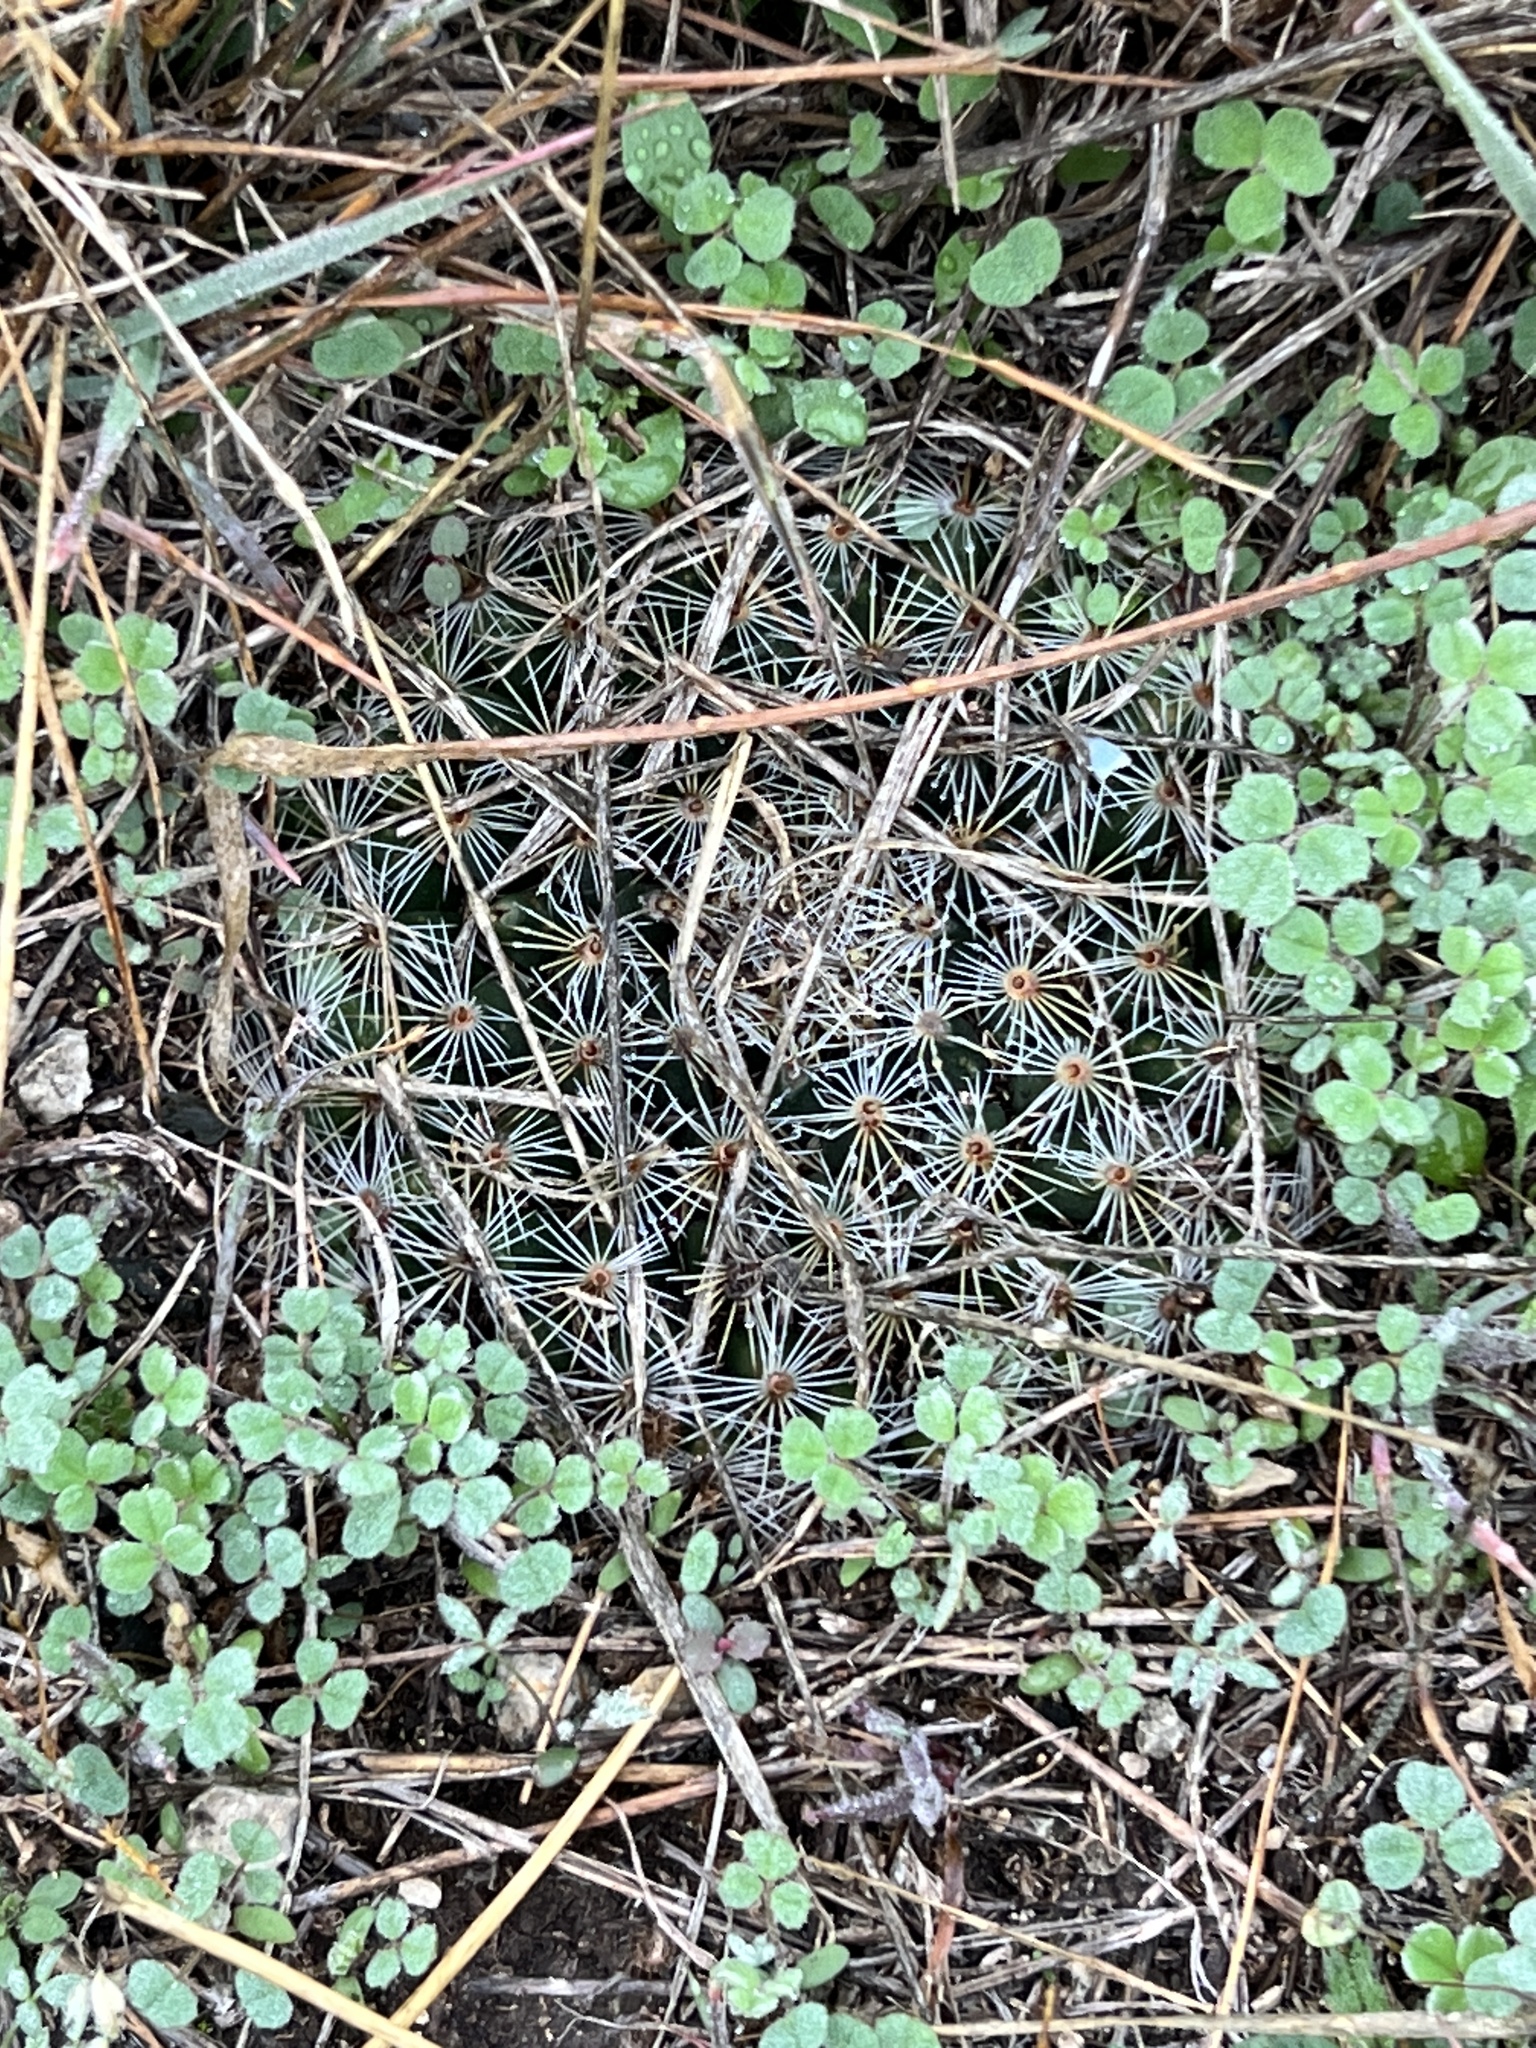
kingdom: Plantae
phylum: Tracheophyta
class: Magnoliopsida
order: Caryophyllales
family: Cactaceae
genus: Mammillaria
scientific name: Mammillaria heyderi
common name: Little nipple cactus
